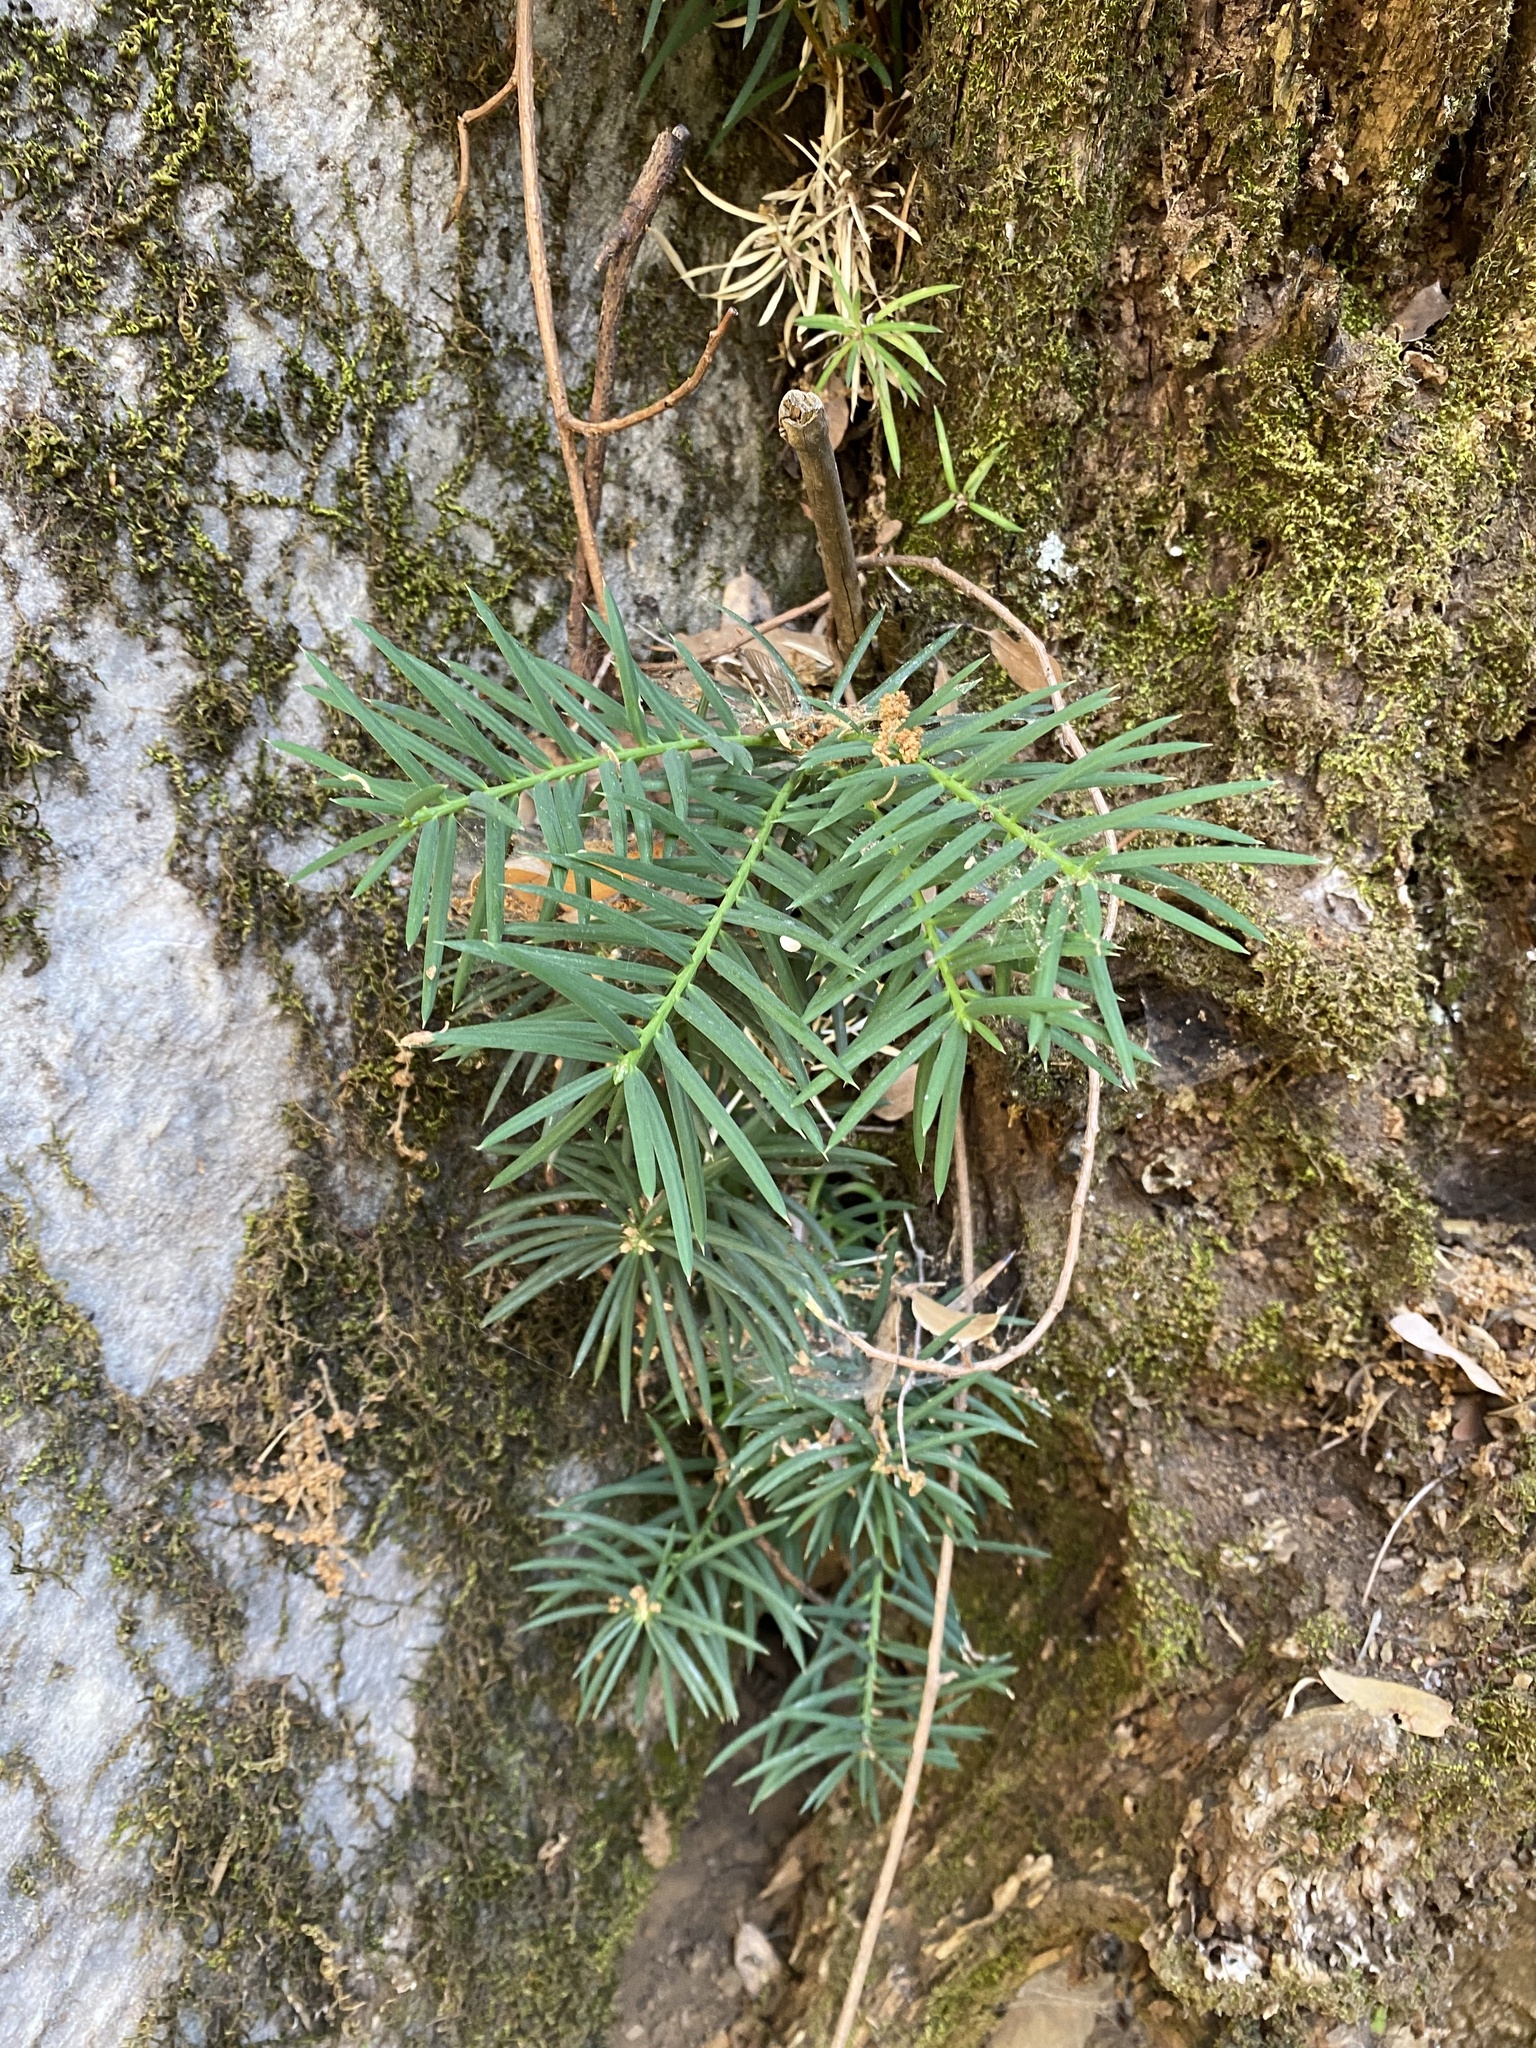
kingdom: Plantae
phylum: Tracheophyta
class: Pinopsida
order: Pinales
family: Taxaceae
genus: Torreya
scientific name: Torreya californica
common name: California torreya
